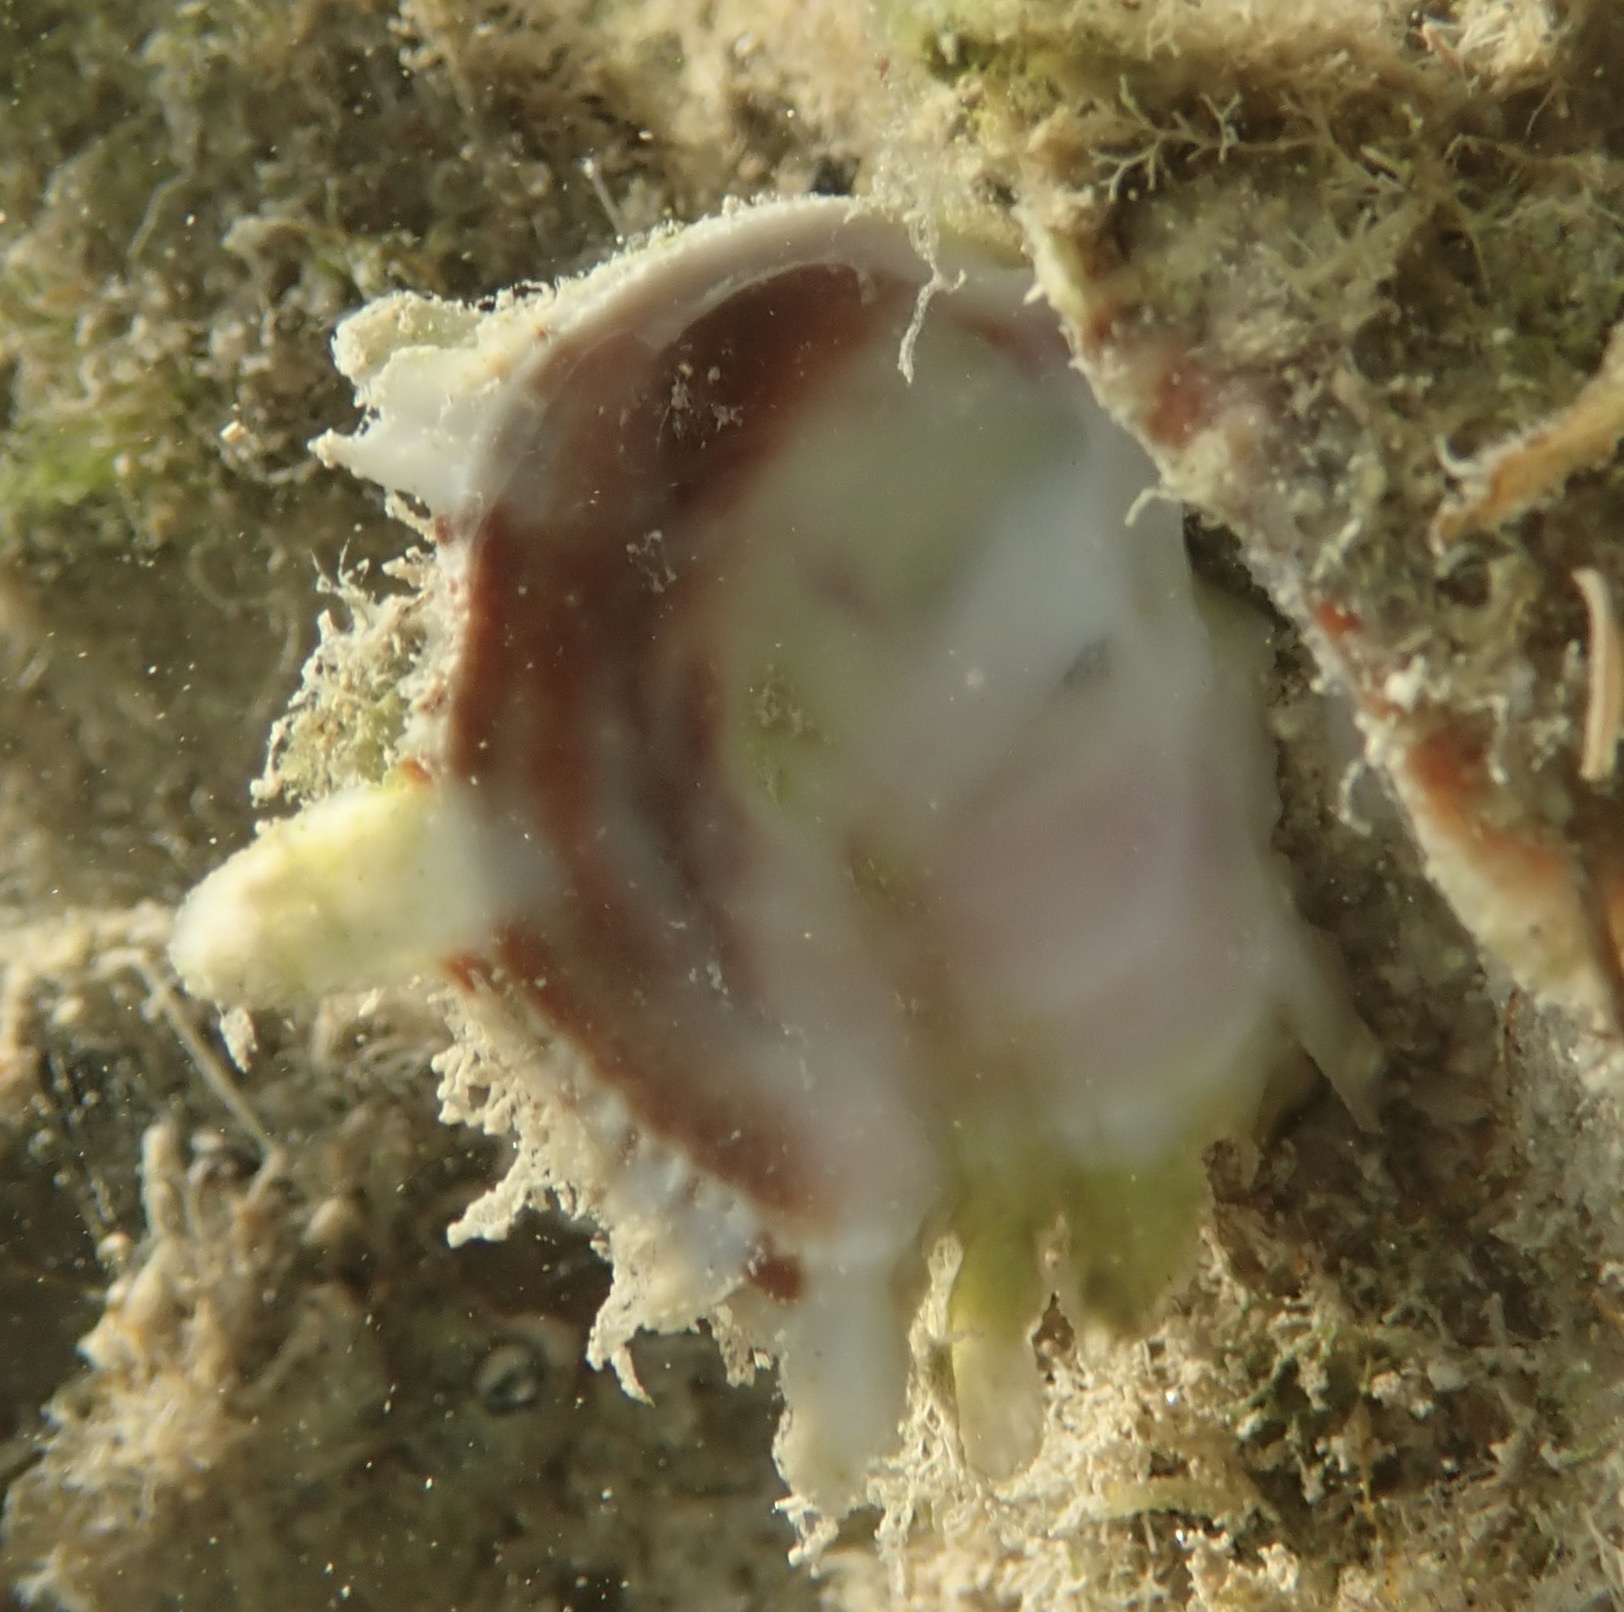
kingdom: Animalia
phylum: Mollusca
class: Bivalvia
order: Venerida
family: Chamidae
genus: Pseudochama
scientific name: Pseudochama cristella
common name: Atlantic jewelbox
